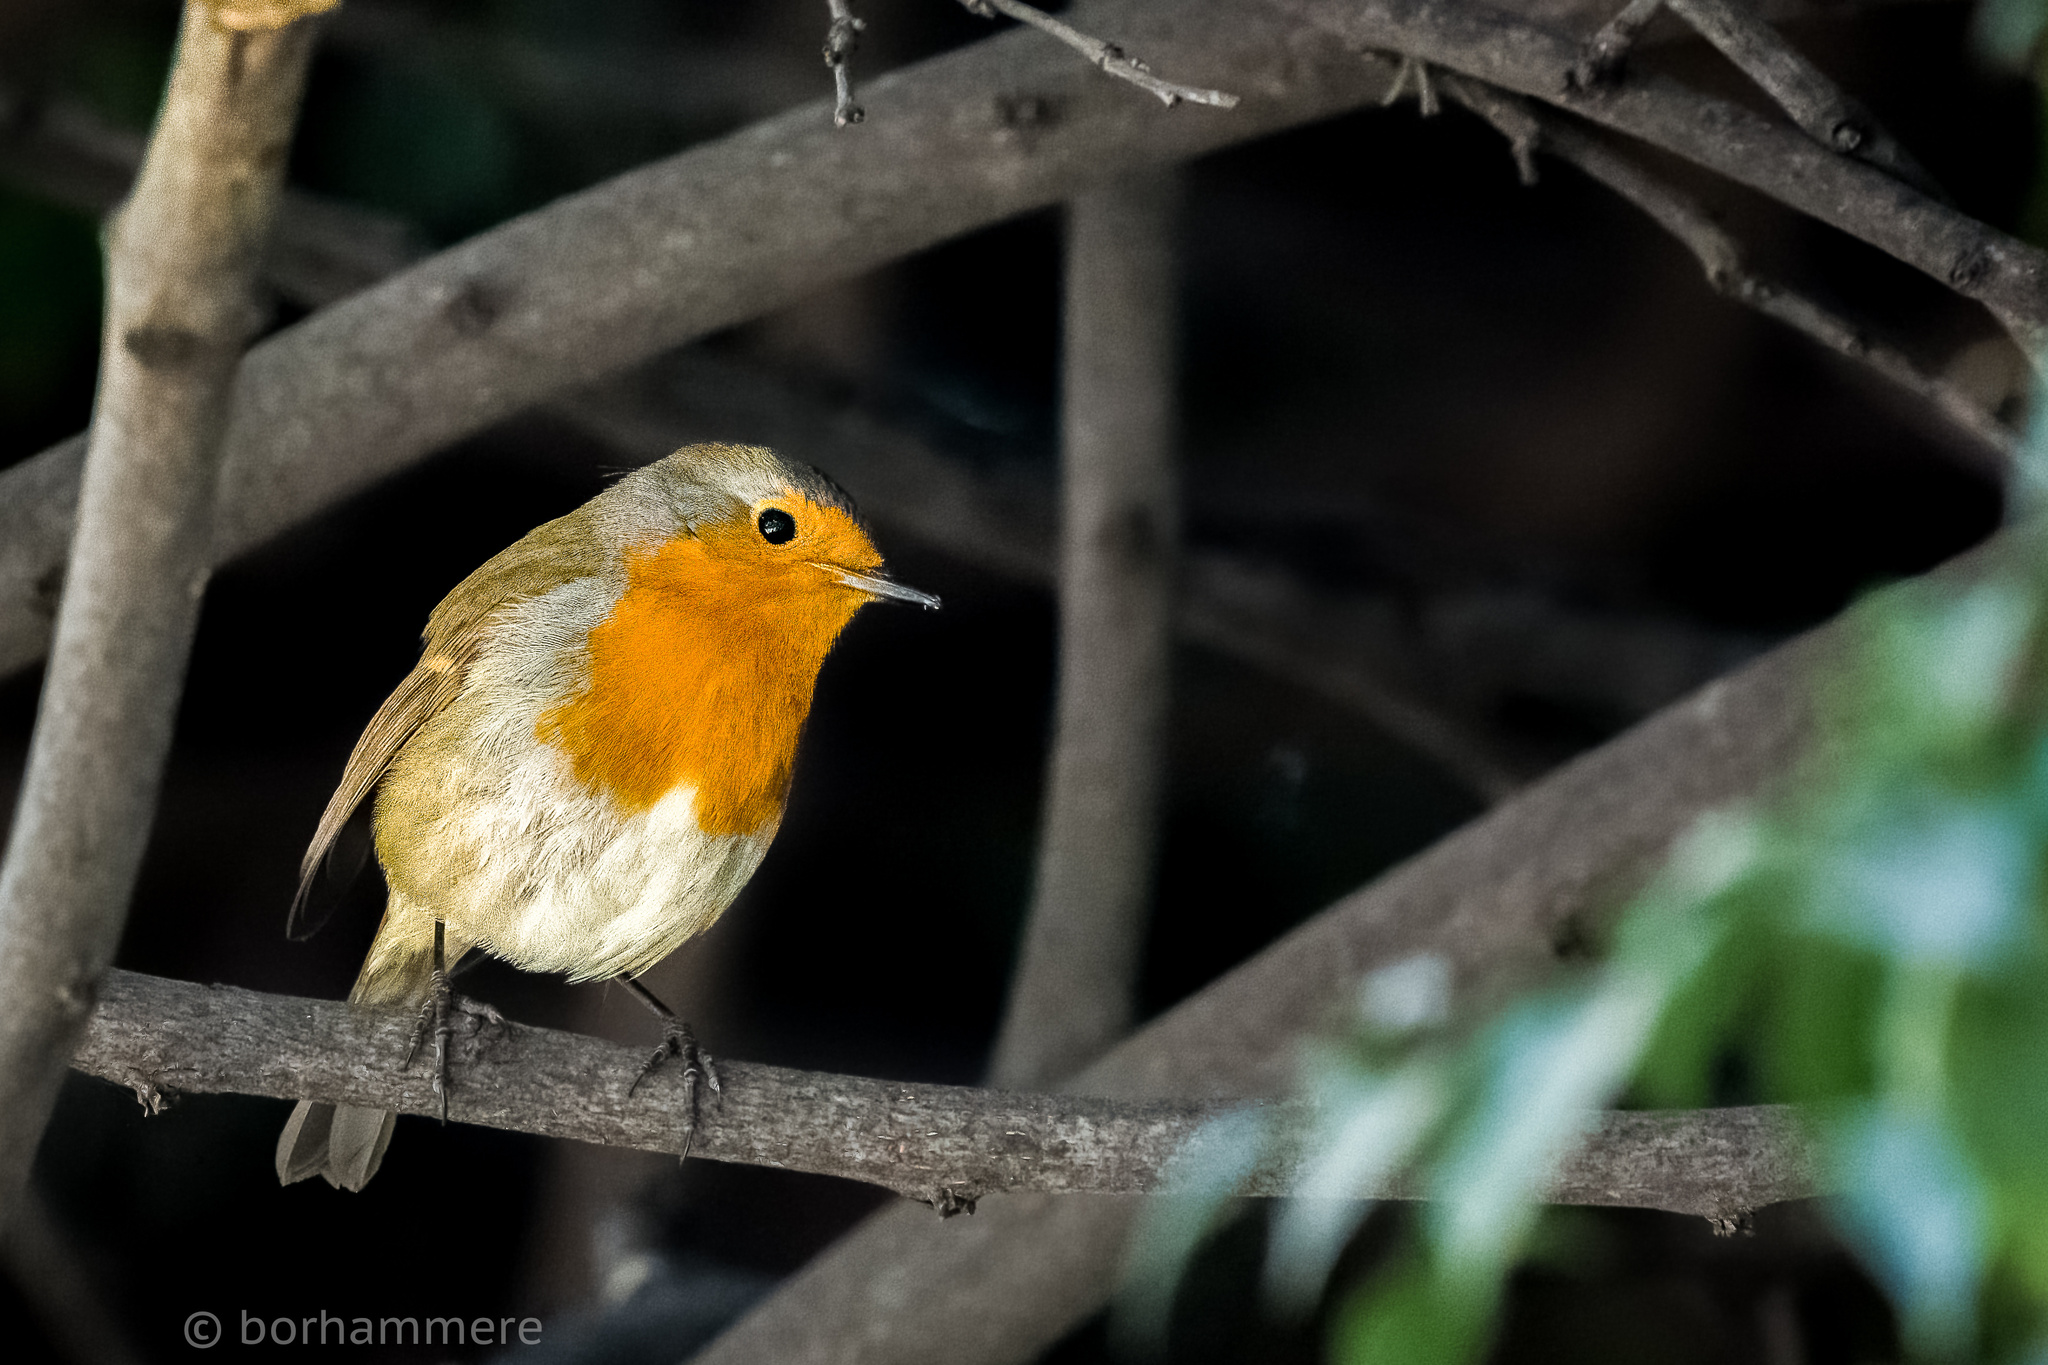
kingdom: Animalia
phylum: Chordata
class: Aves
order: Passeriformes
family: Muscicapidae
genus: Erithacus
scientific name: Erithacus rubecula
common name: European robin
